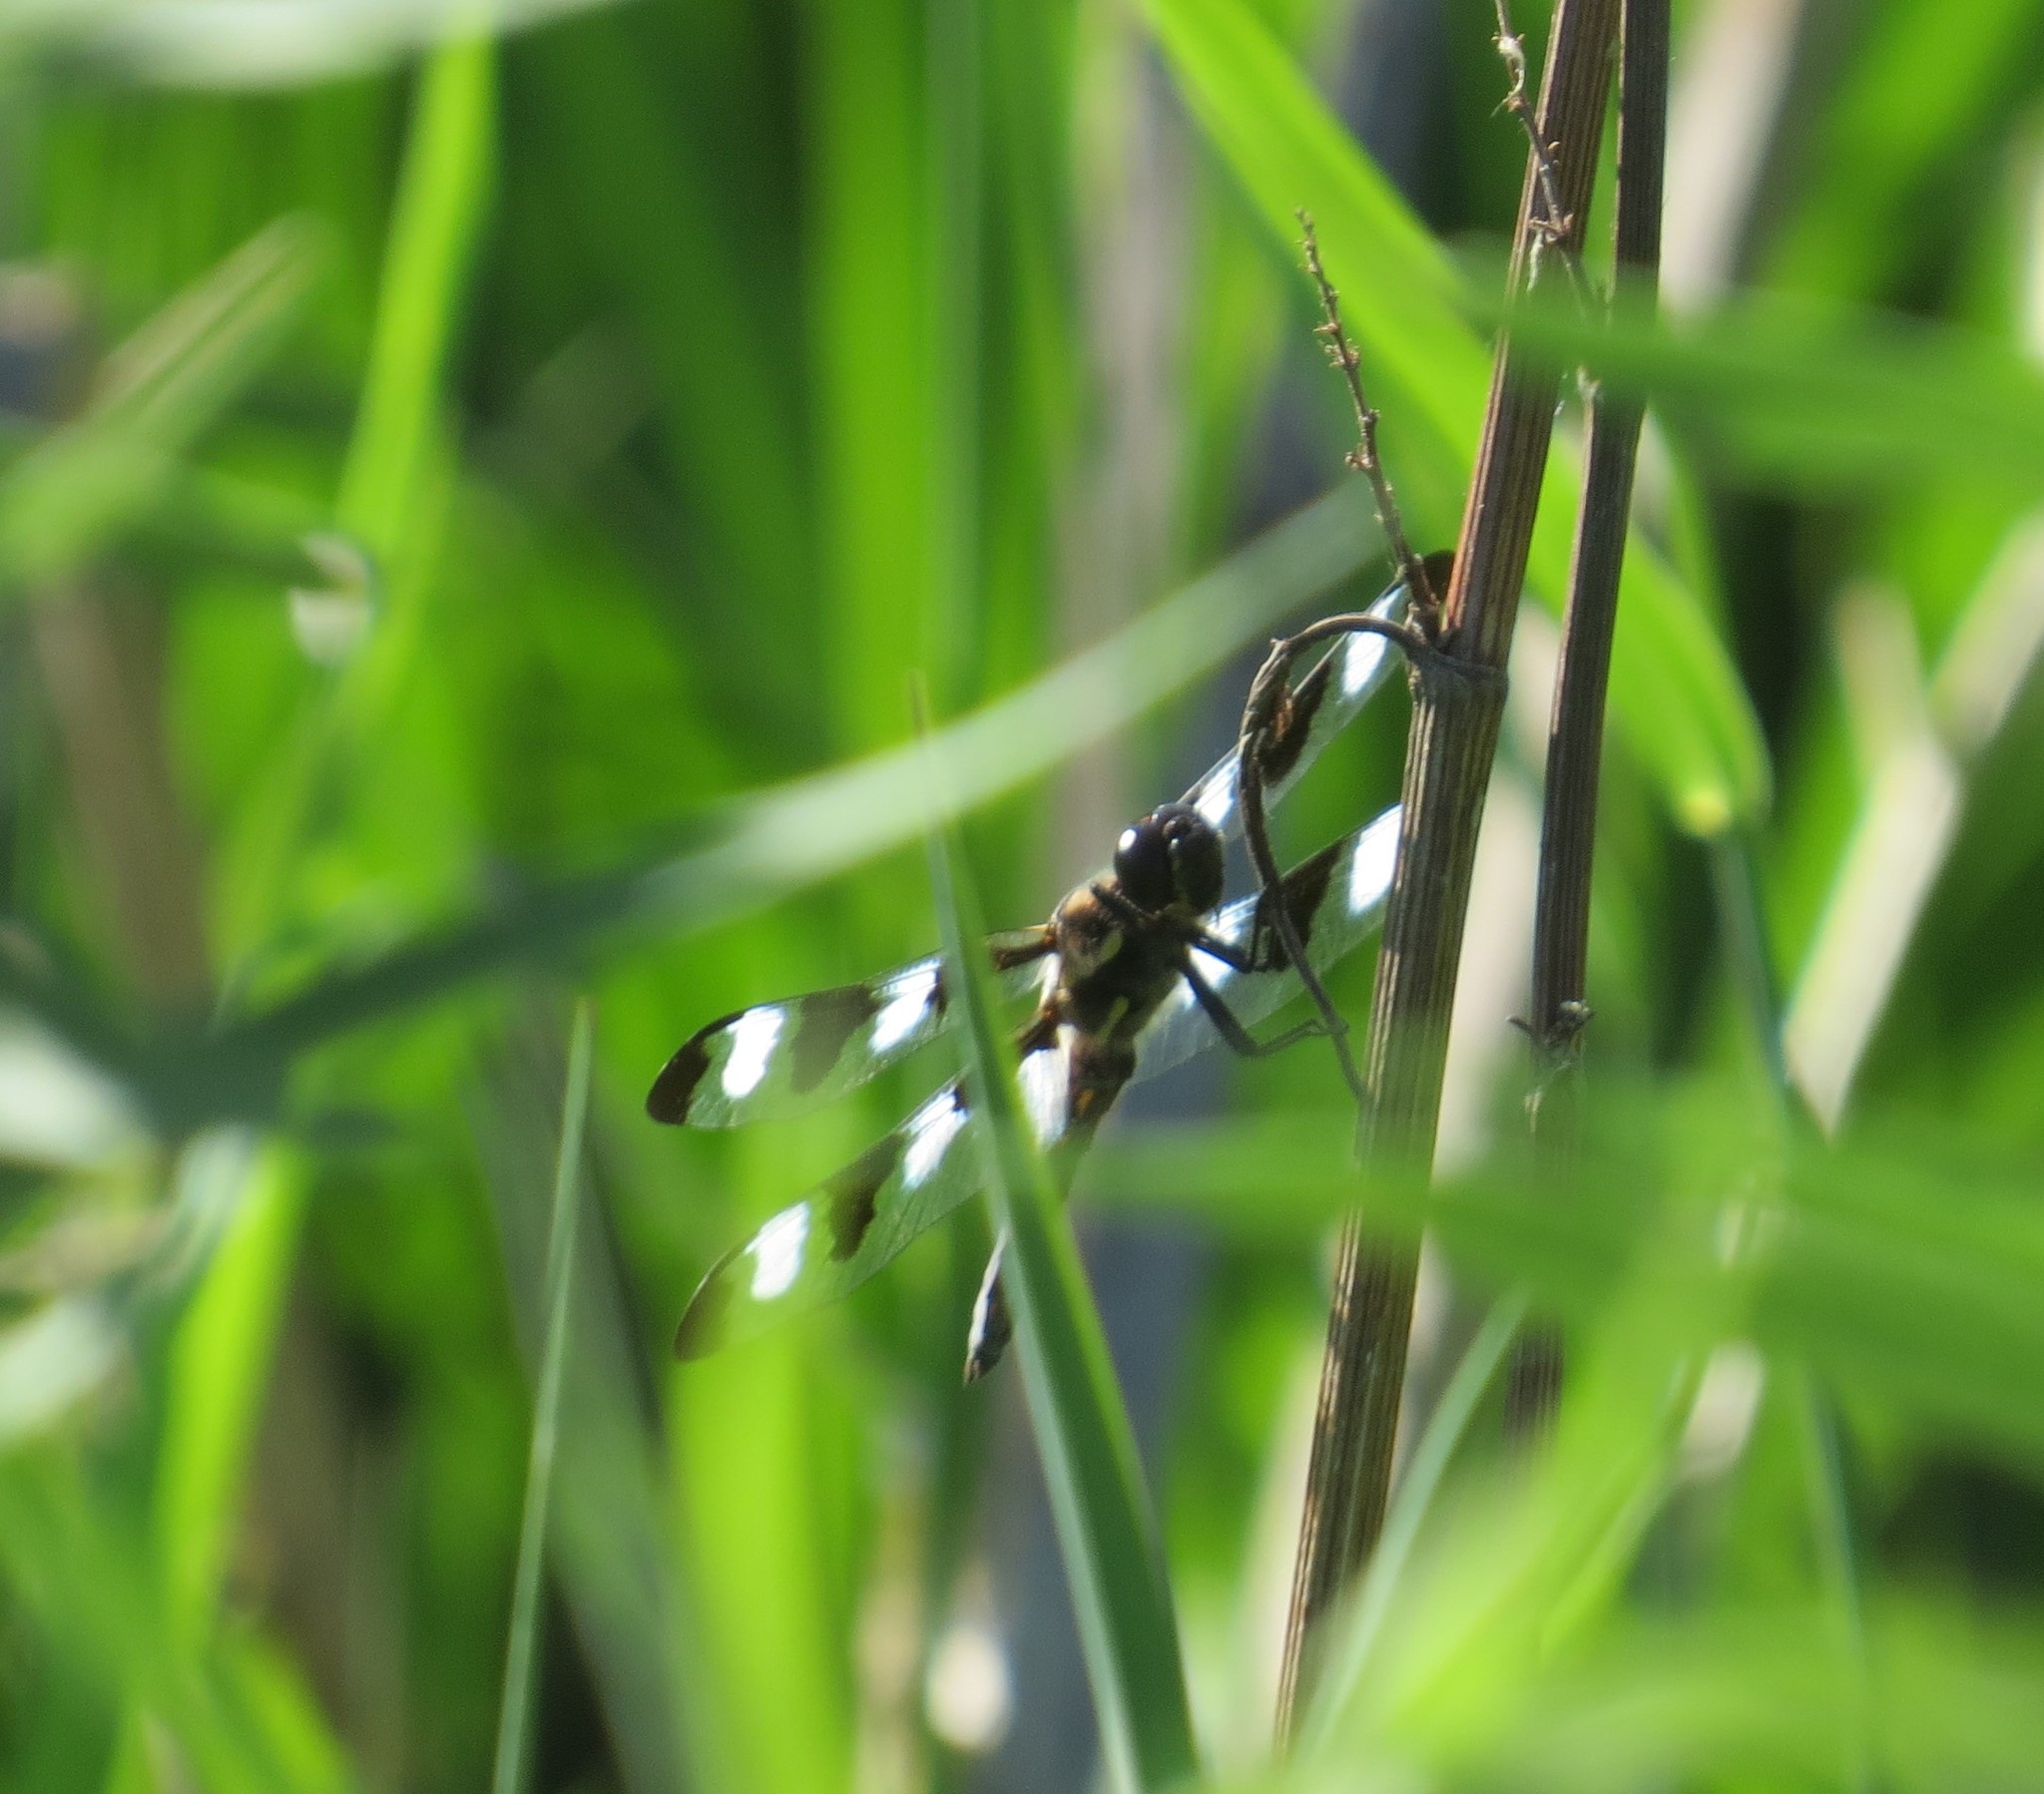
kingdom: Animalia
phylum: Arthropoda
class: Insecta
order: Odonata
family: Libellulidae
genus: Libellula
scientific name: Libellula pulchella
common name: Twelve-spotted skimmer
